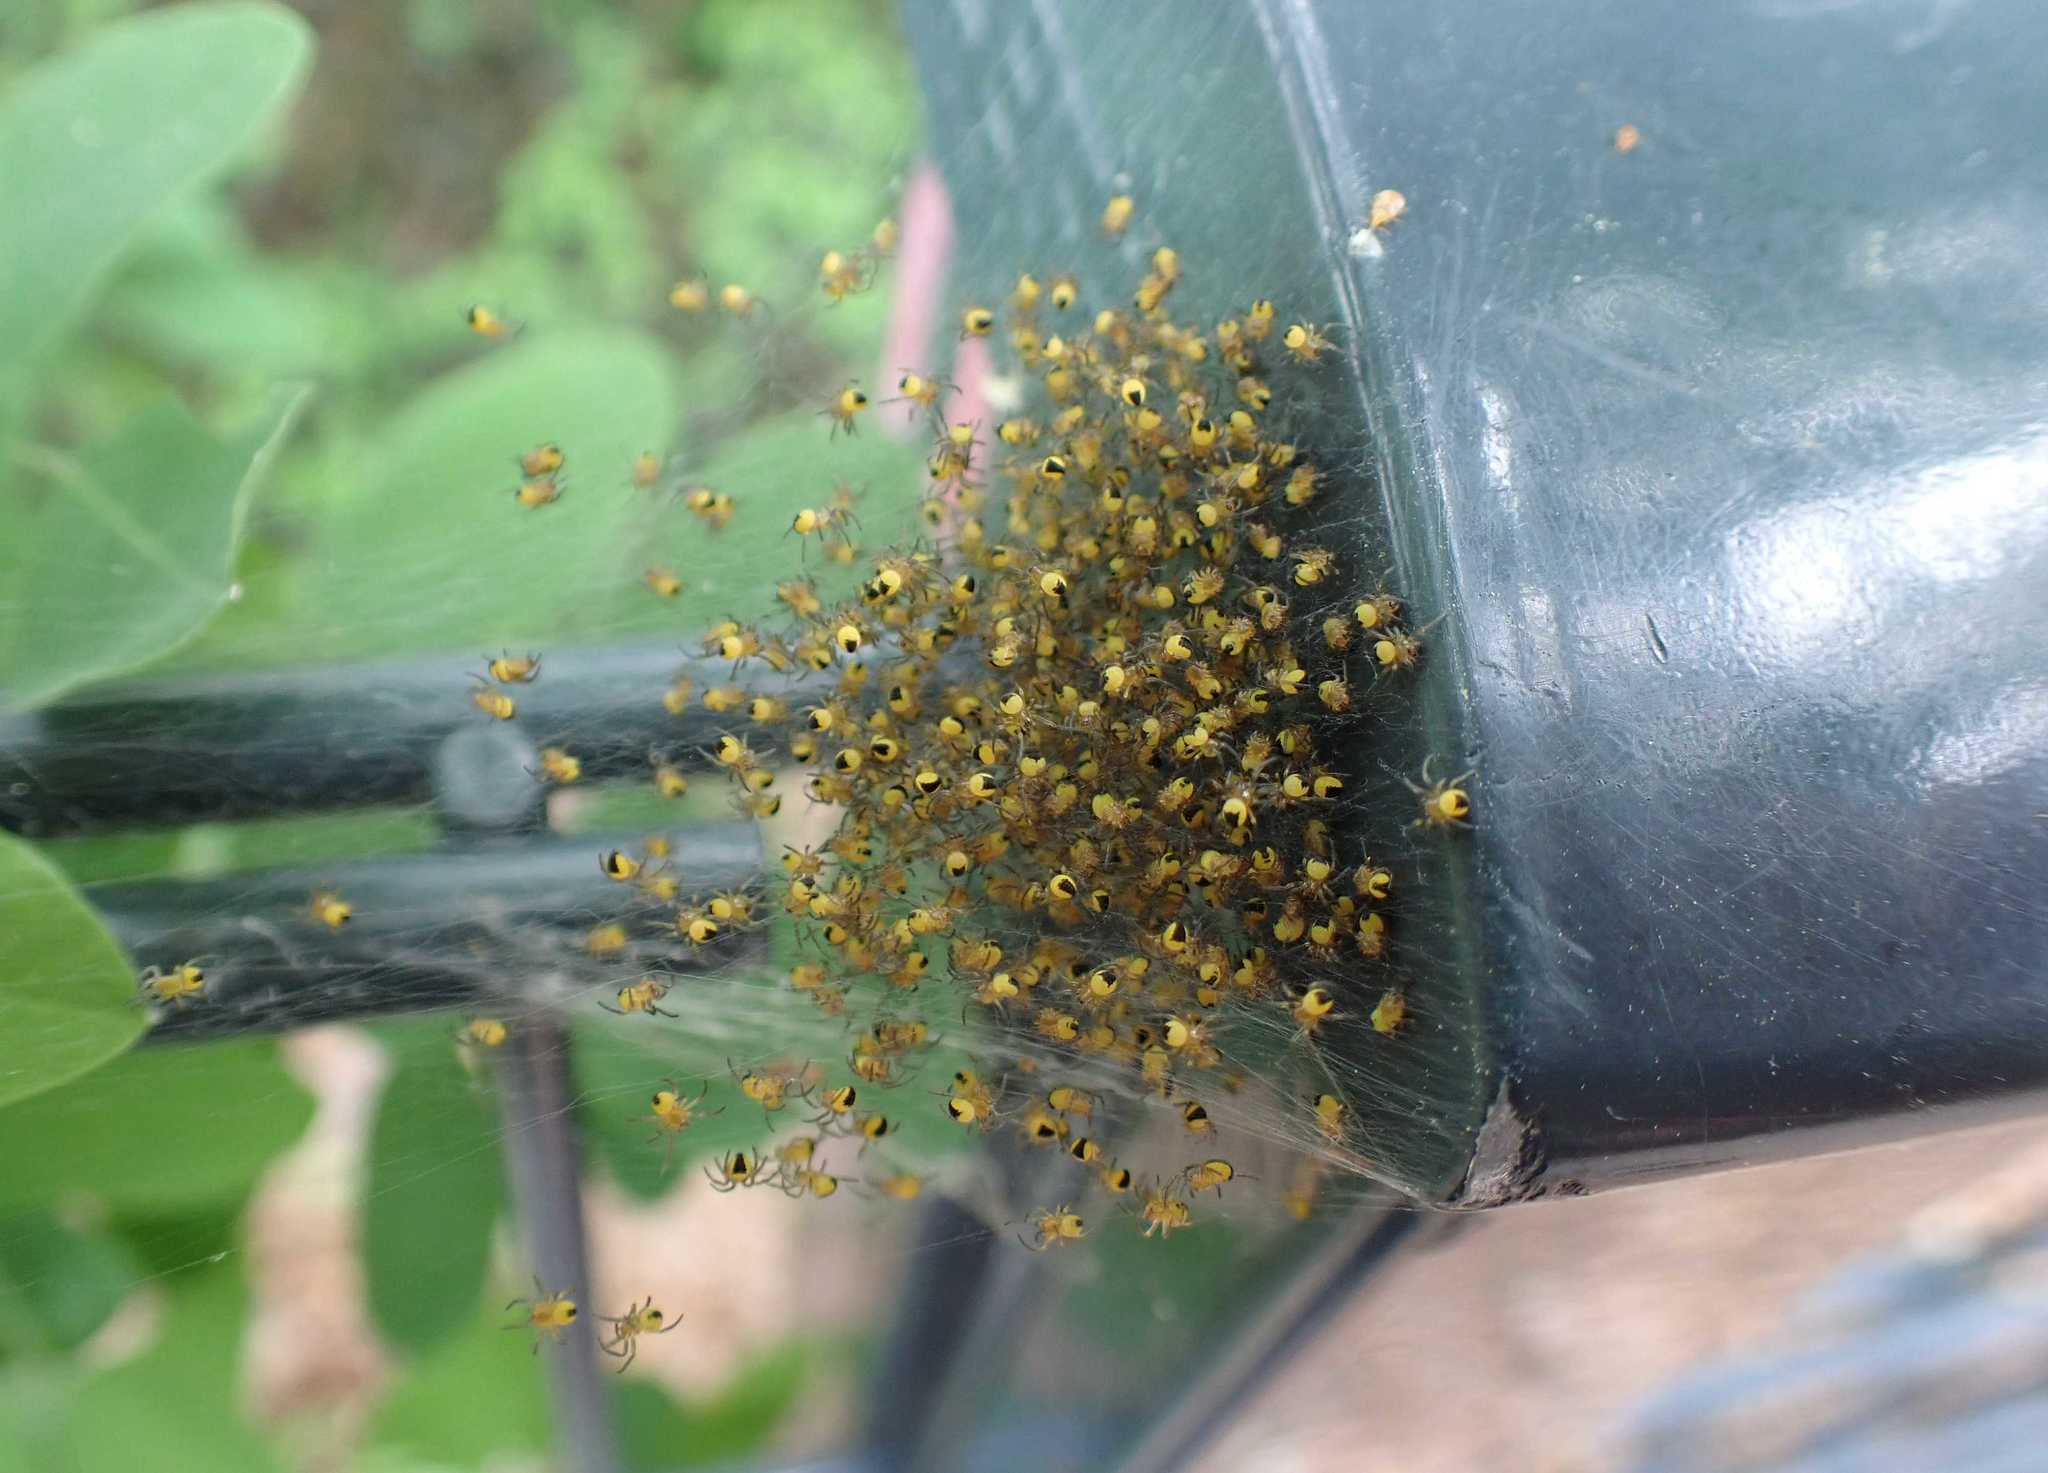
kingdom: Animalia
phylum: Arthropoda
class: Arachnida
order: Araneae
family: Araneidae
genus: Araneus
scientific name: Araneus diadematus
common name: Cross orbweaver
